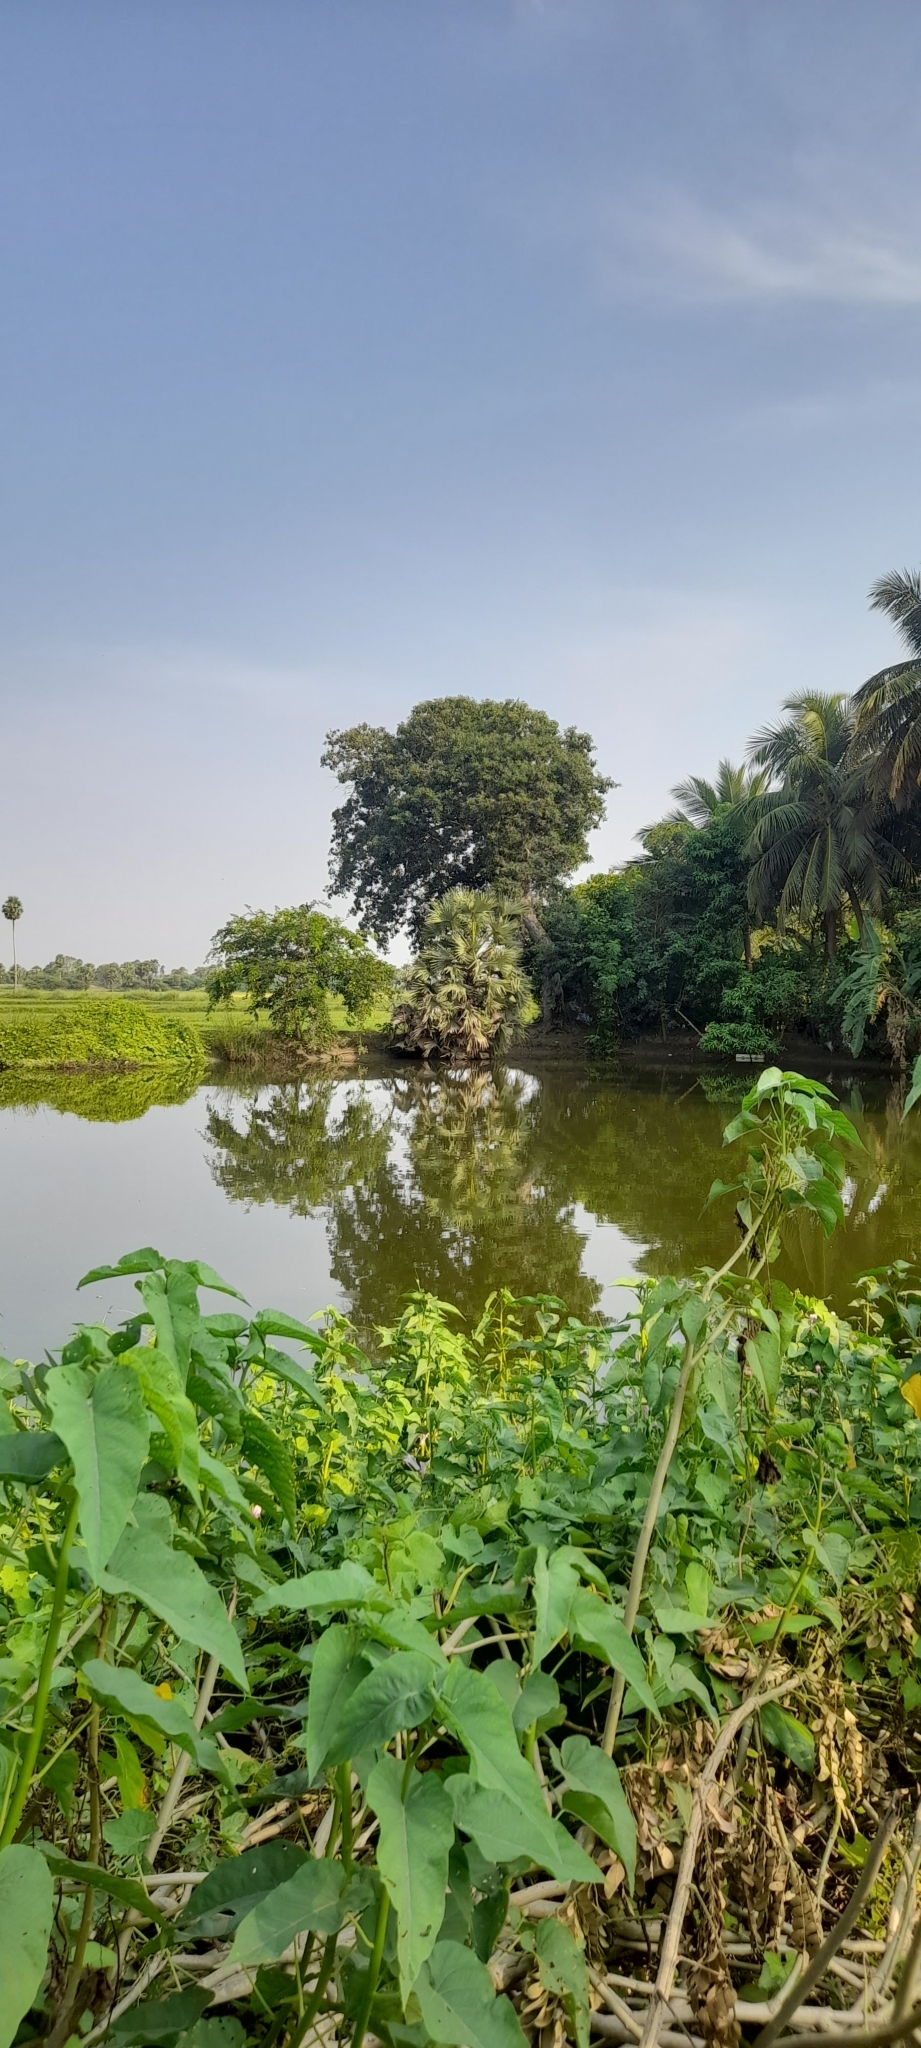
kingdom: Plantae
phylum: Tracheophyta
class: Magnoliopsida
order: Solanales
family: Convolvulaceae
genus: Ipomoea
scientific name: Ipomoea carnea
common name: Morning-glory
